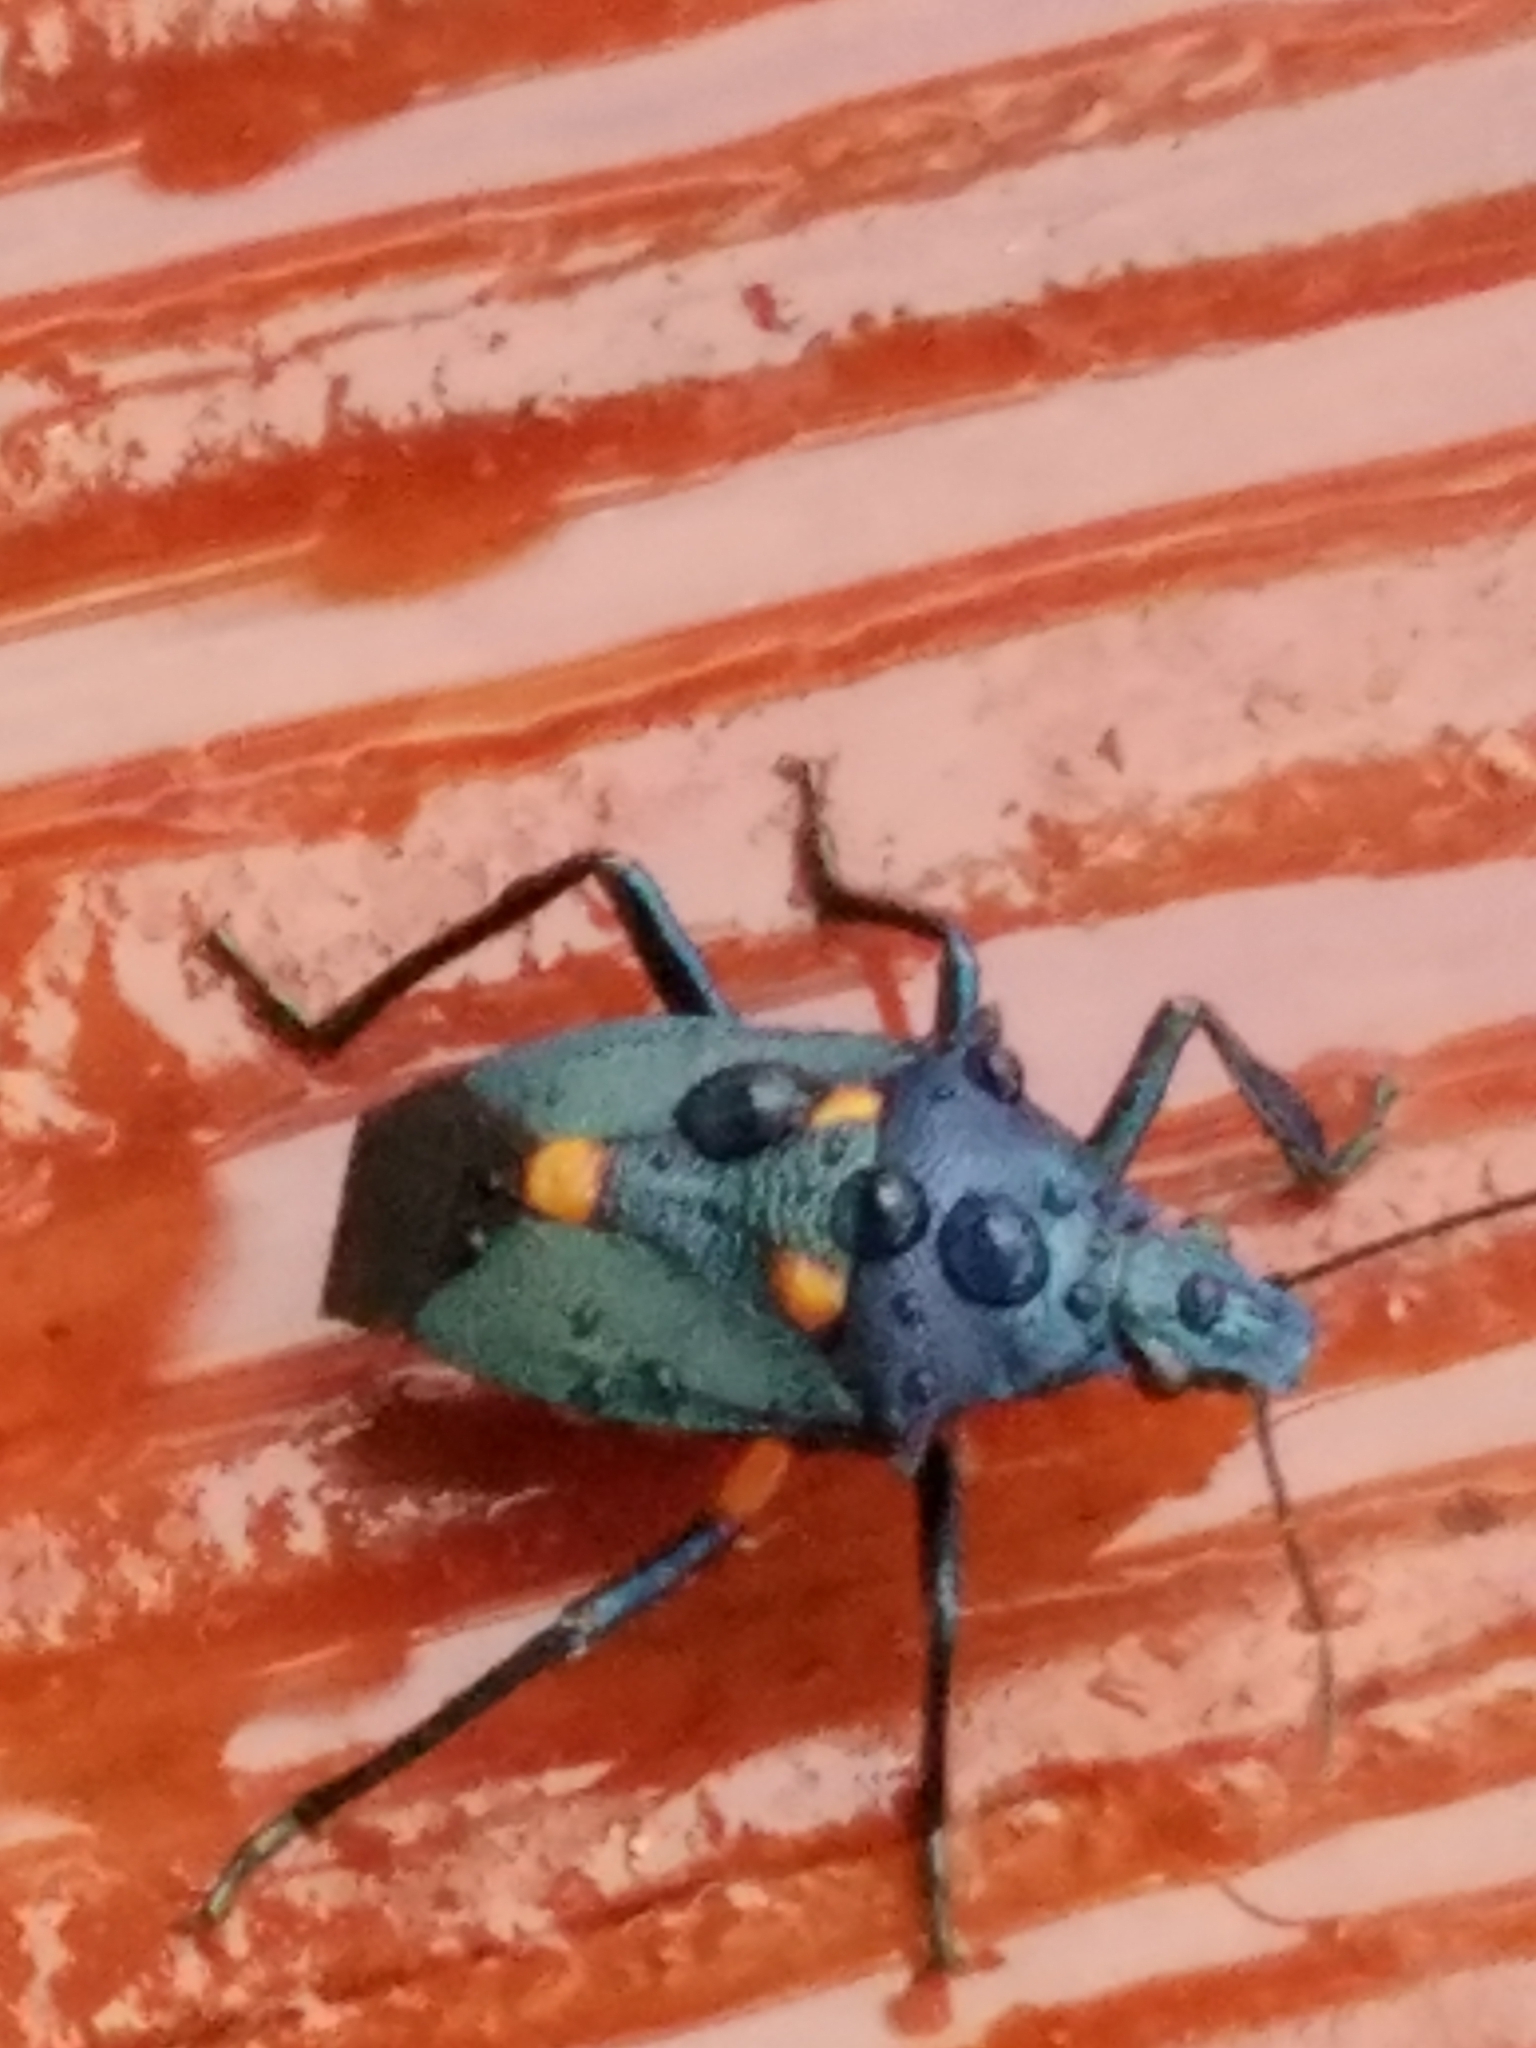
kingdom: Animalia
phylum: Arthropoda
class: Insecta
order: Hemiptera
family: Pentatomidae
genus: Euthyrhynchus
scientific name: Euthyrhynchus floridanus
